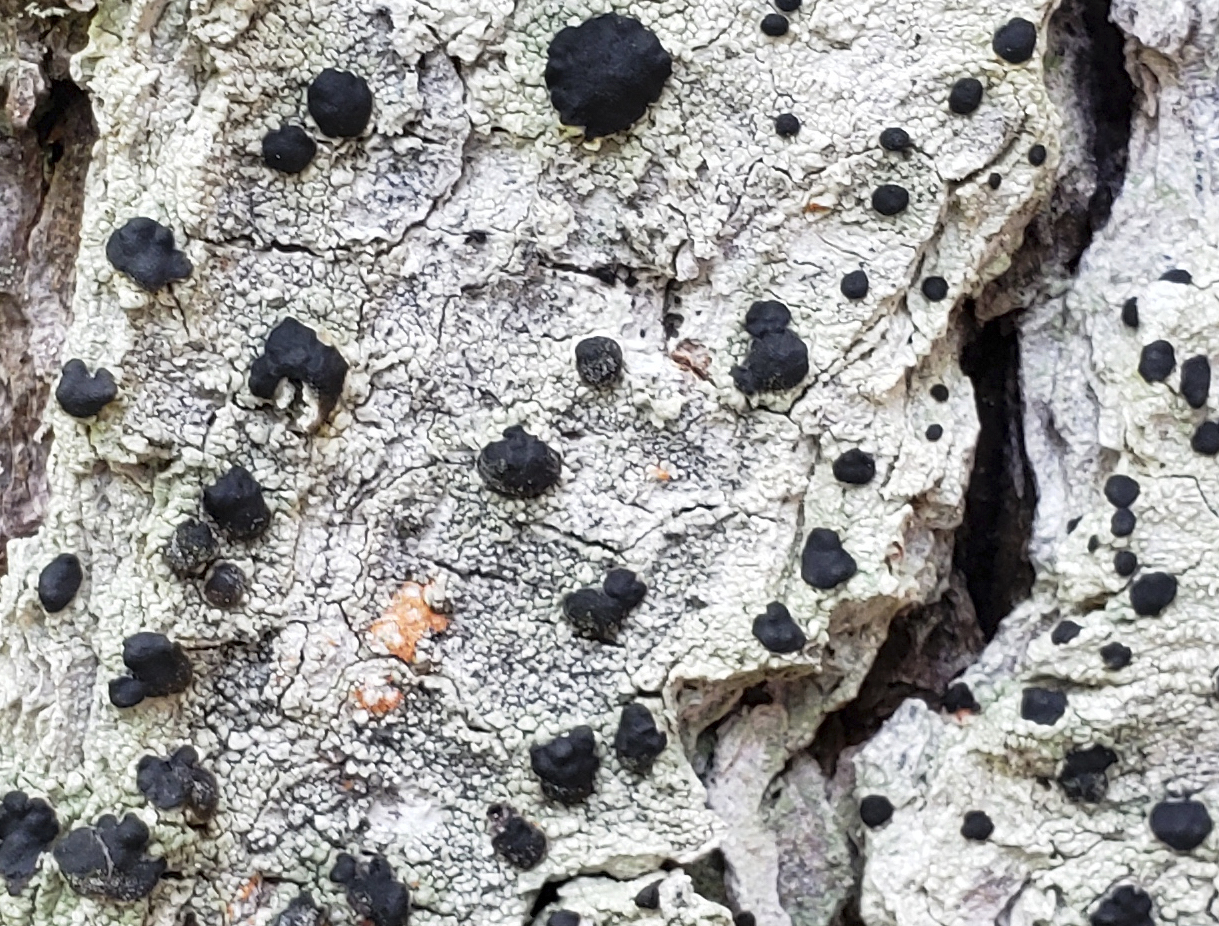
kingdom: Fungi
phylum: Ascomycota
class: Lecanoromycetes
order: Caliciales
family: Caliciaceae
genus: Buellia
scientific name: Buellia erubescens
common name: Common button lichen
